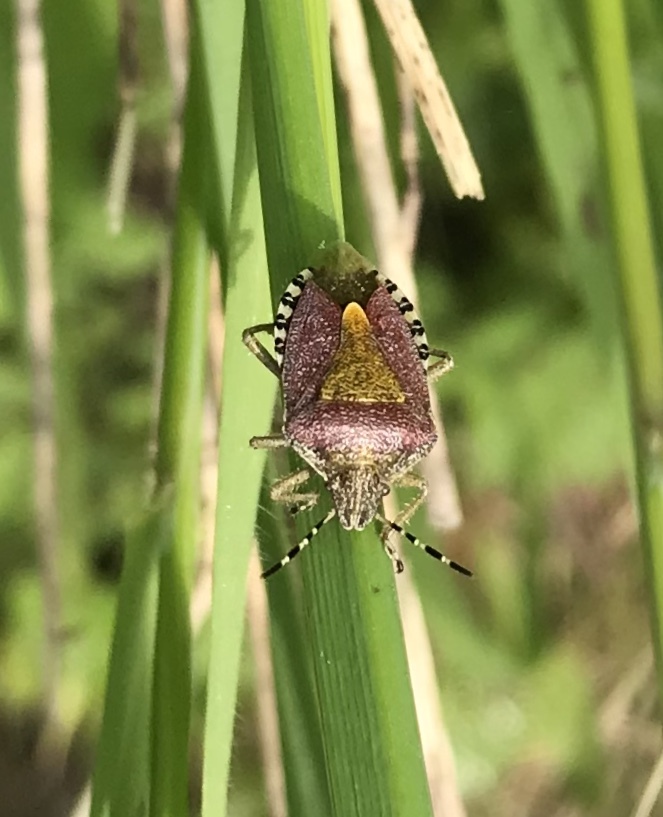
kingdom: Animalia
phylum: Arthropoda
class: Insecta
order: Hemiptera
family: Pentatomidae
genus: Dolycoris
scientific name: Dolycoris baccarum
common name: Sloe bug
